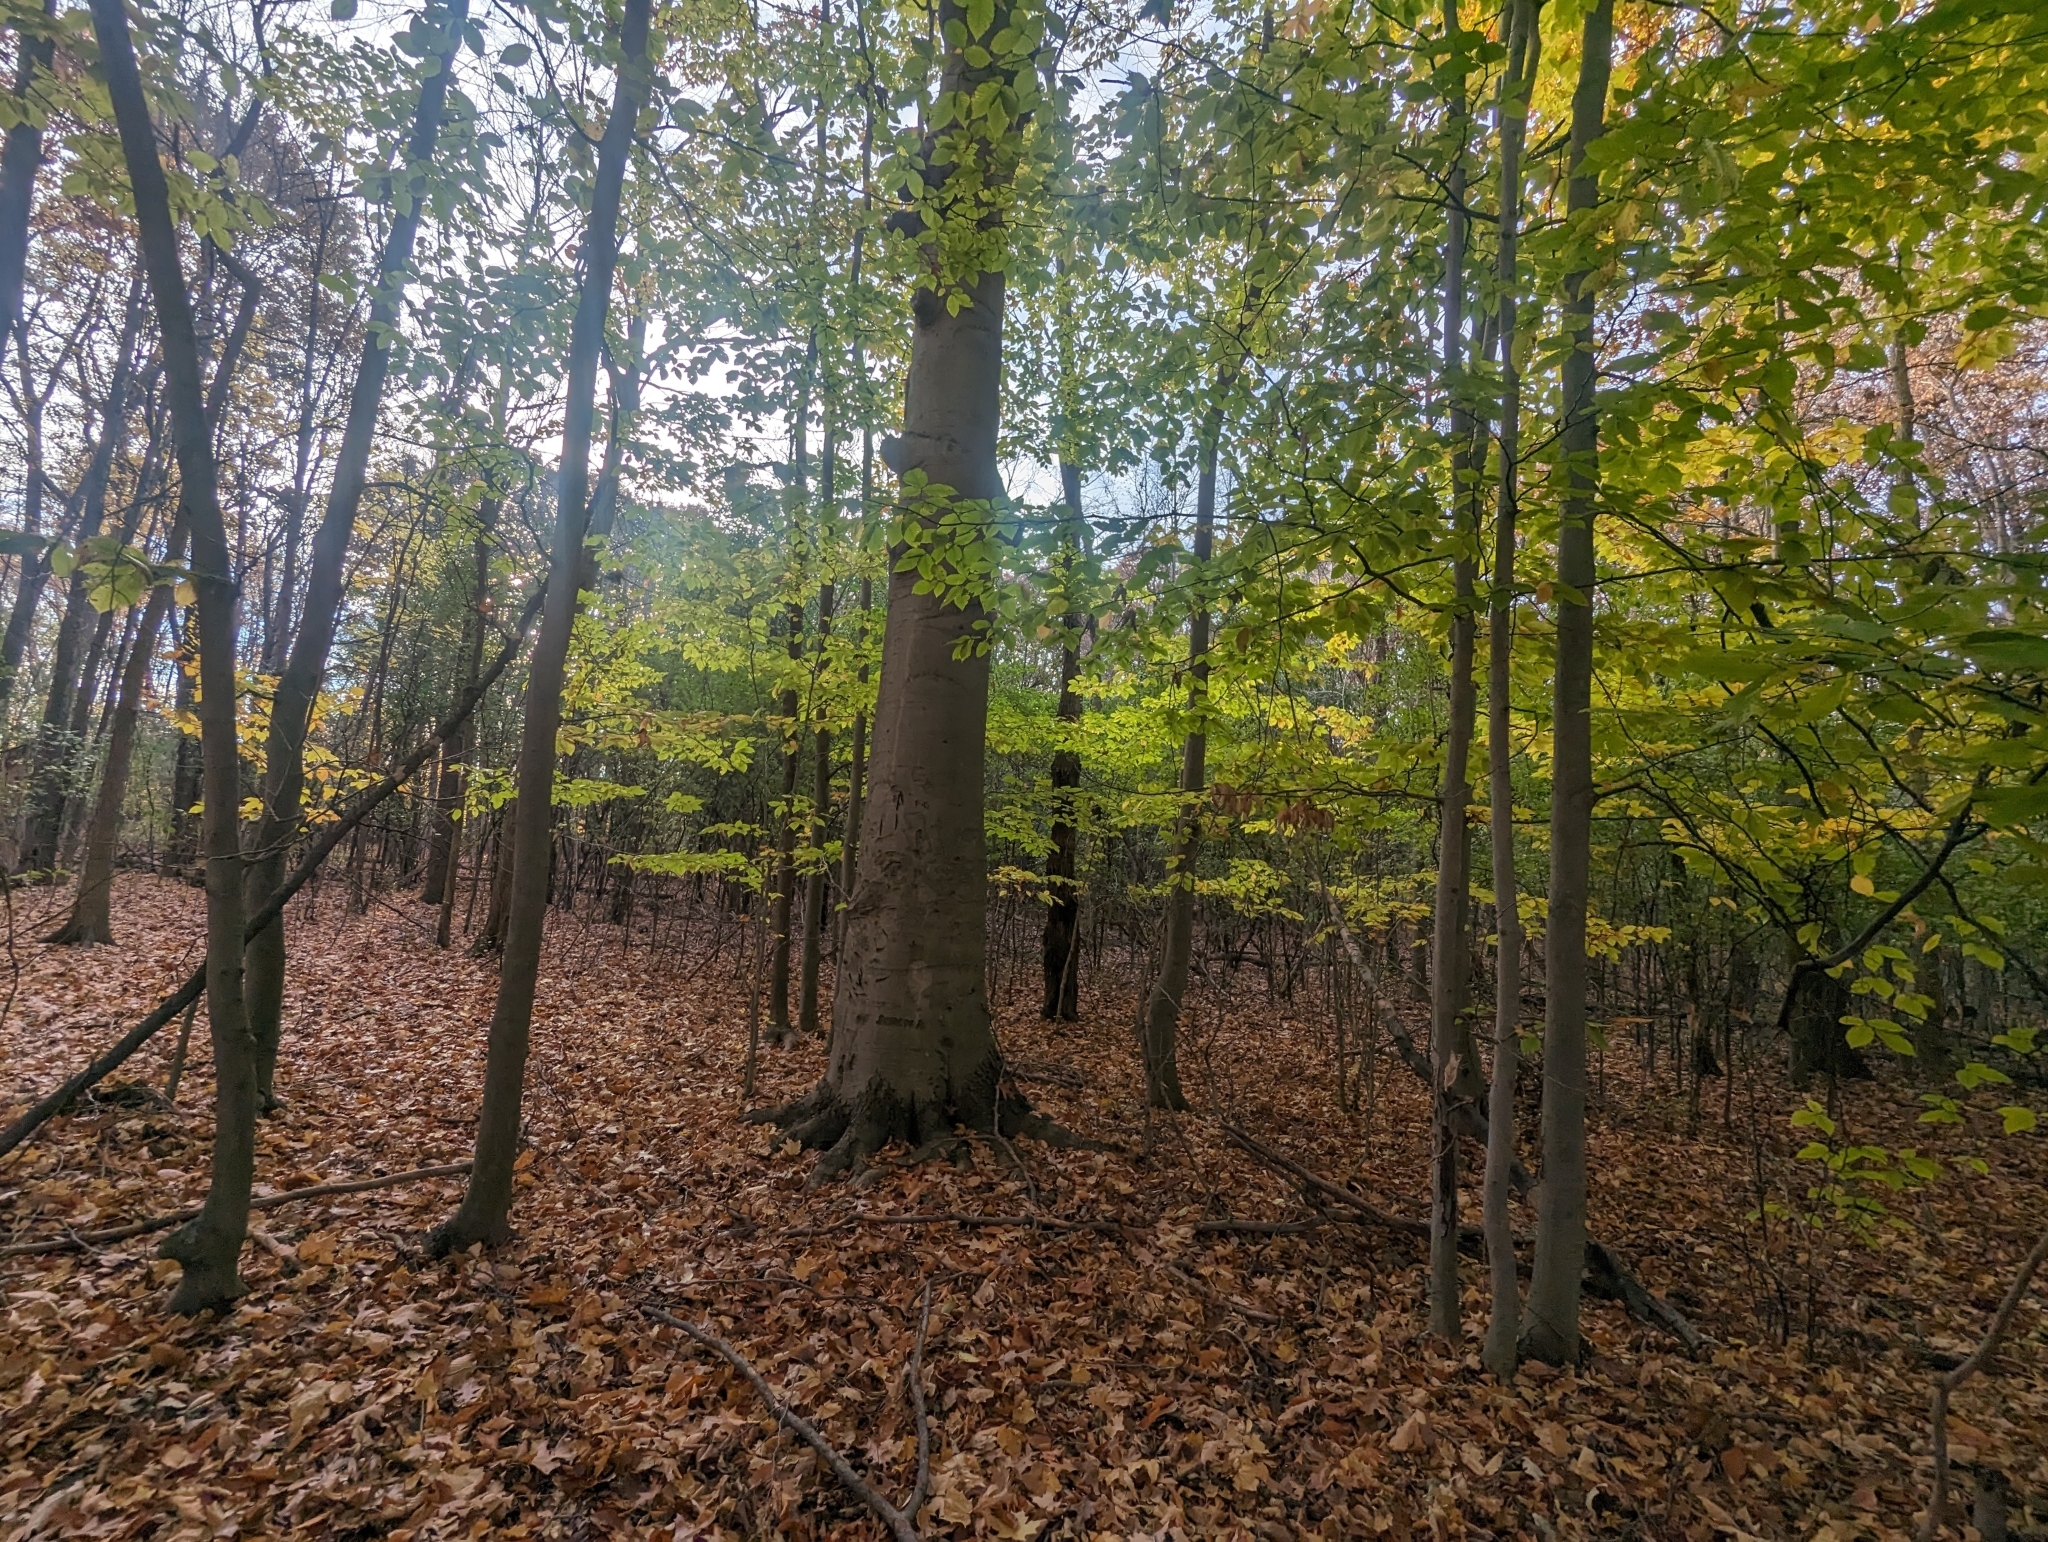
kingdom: Plantae
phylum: Tracheophyta
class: Magnoliopsida
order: Fagales
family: Fagaceae
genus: Fagus
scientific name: Fagus grandifolia
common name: American beech
